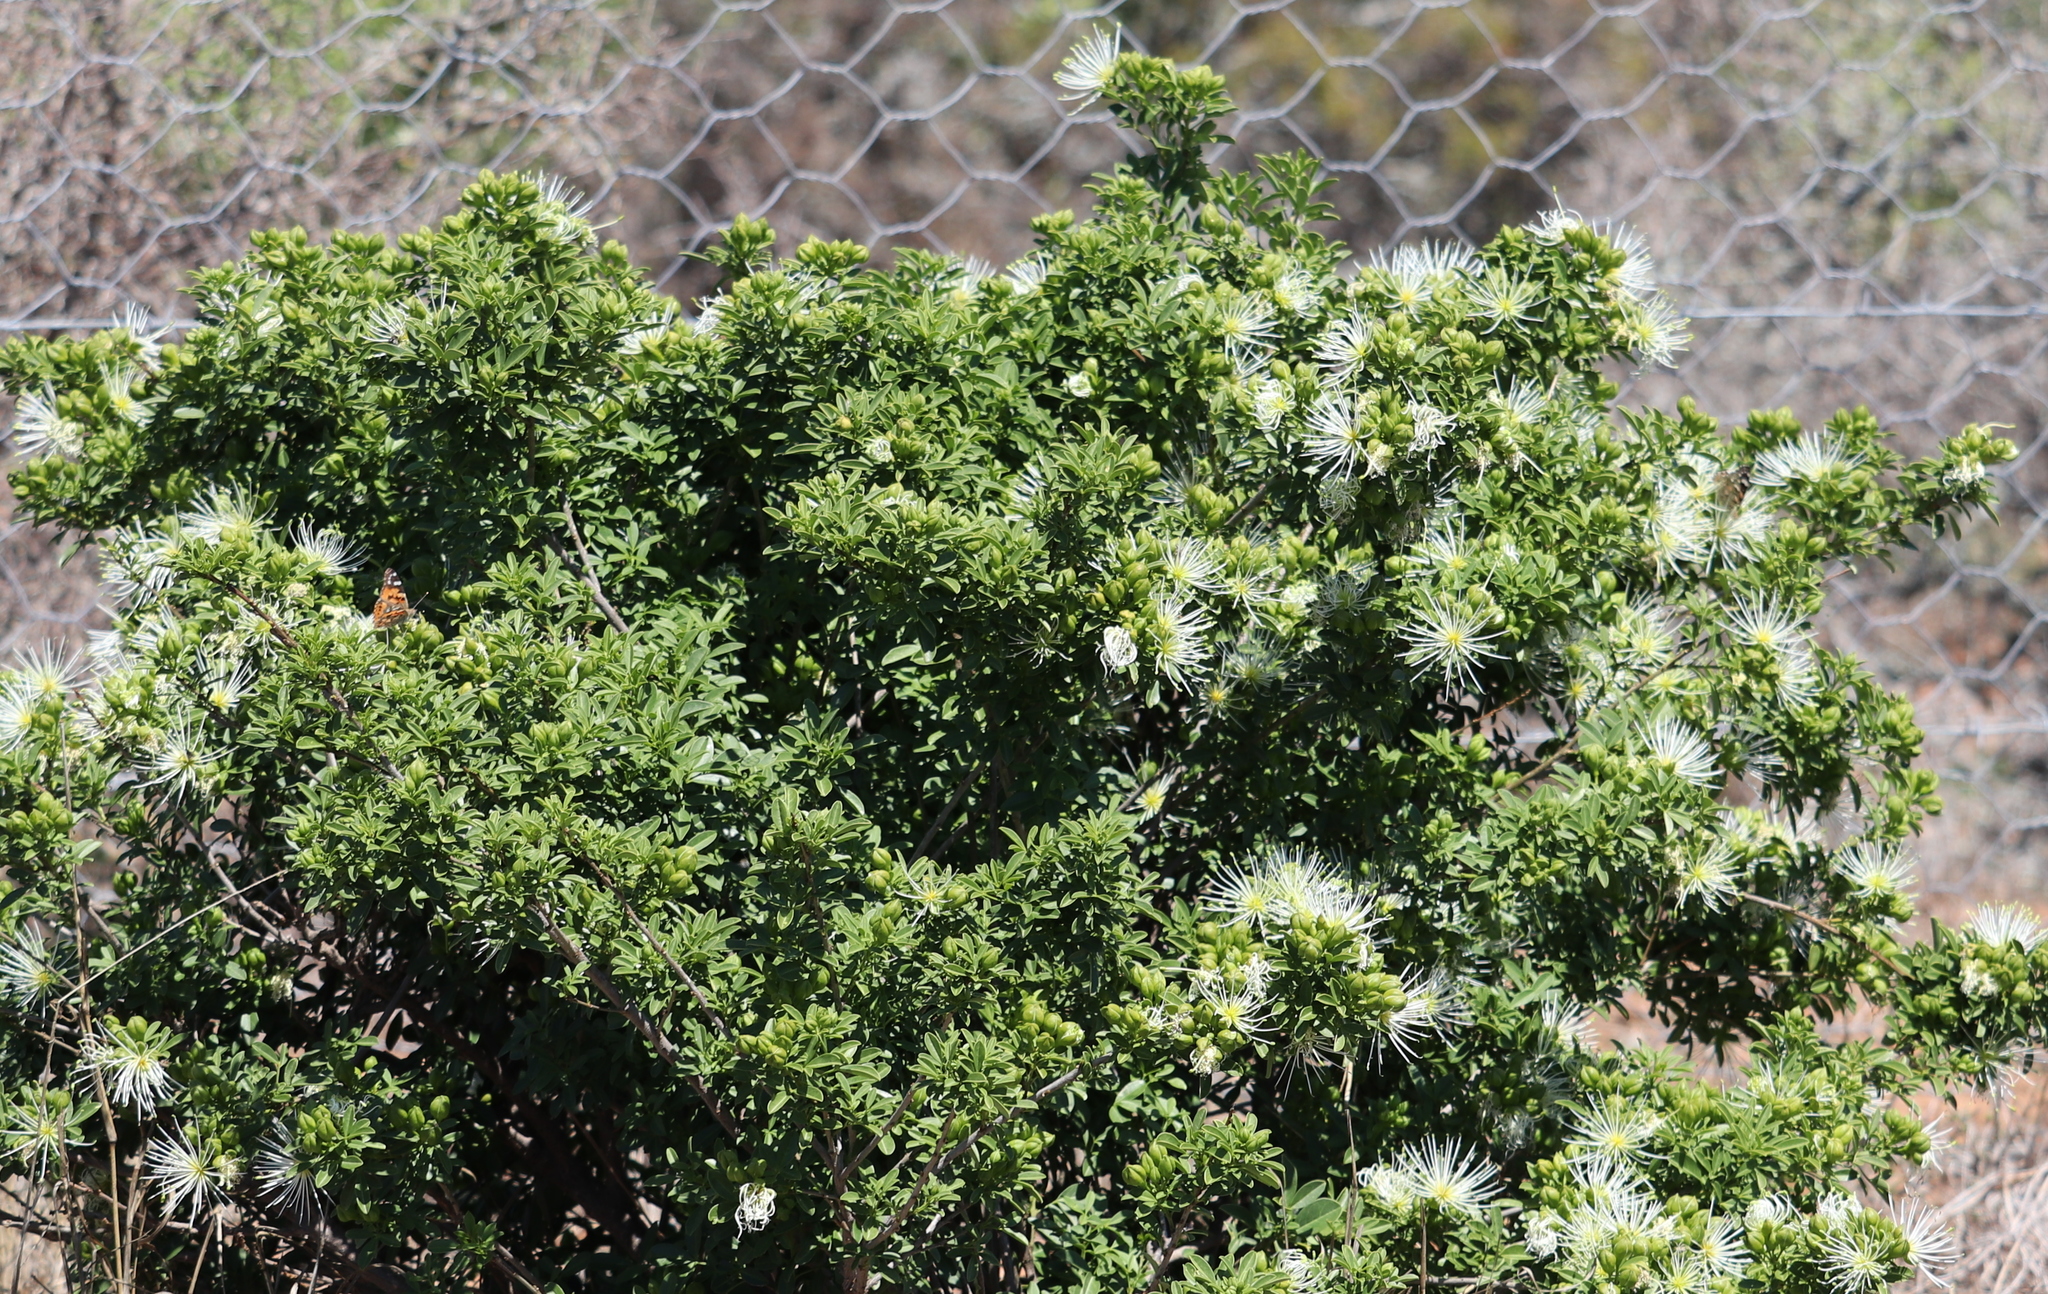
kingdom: Plantae
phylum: Tracheophyta
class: Magnoliopsida
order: Brassicales
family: Capparaceae
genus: Maerua
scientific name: Maerua cafra
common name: Bush maerua
